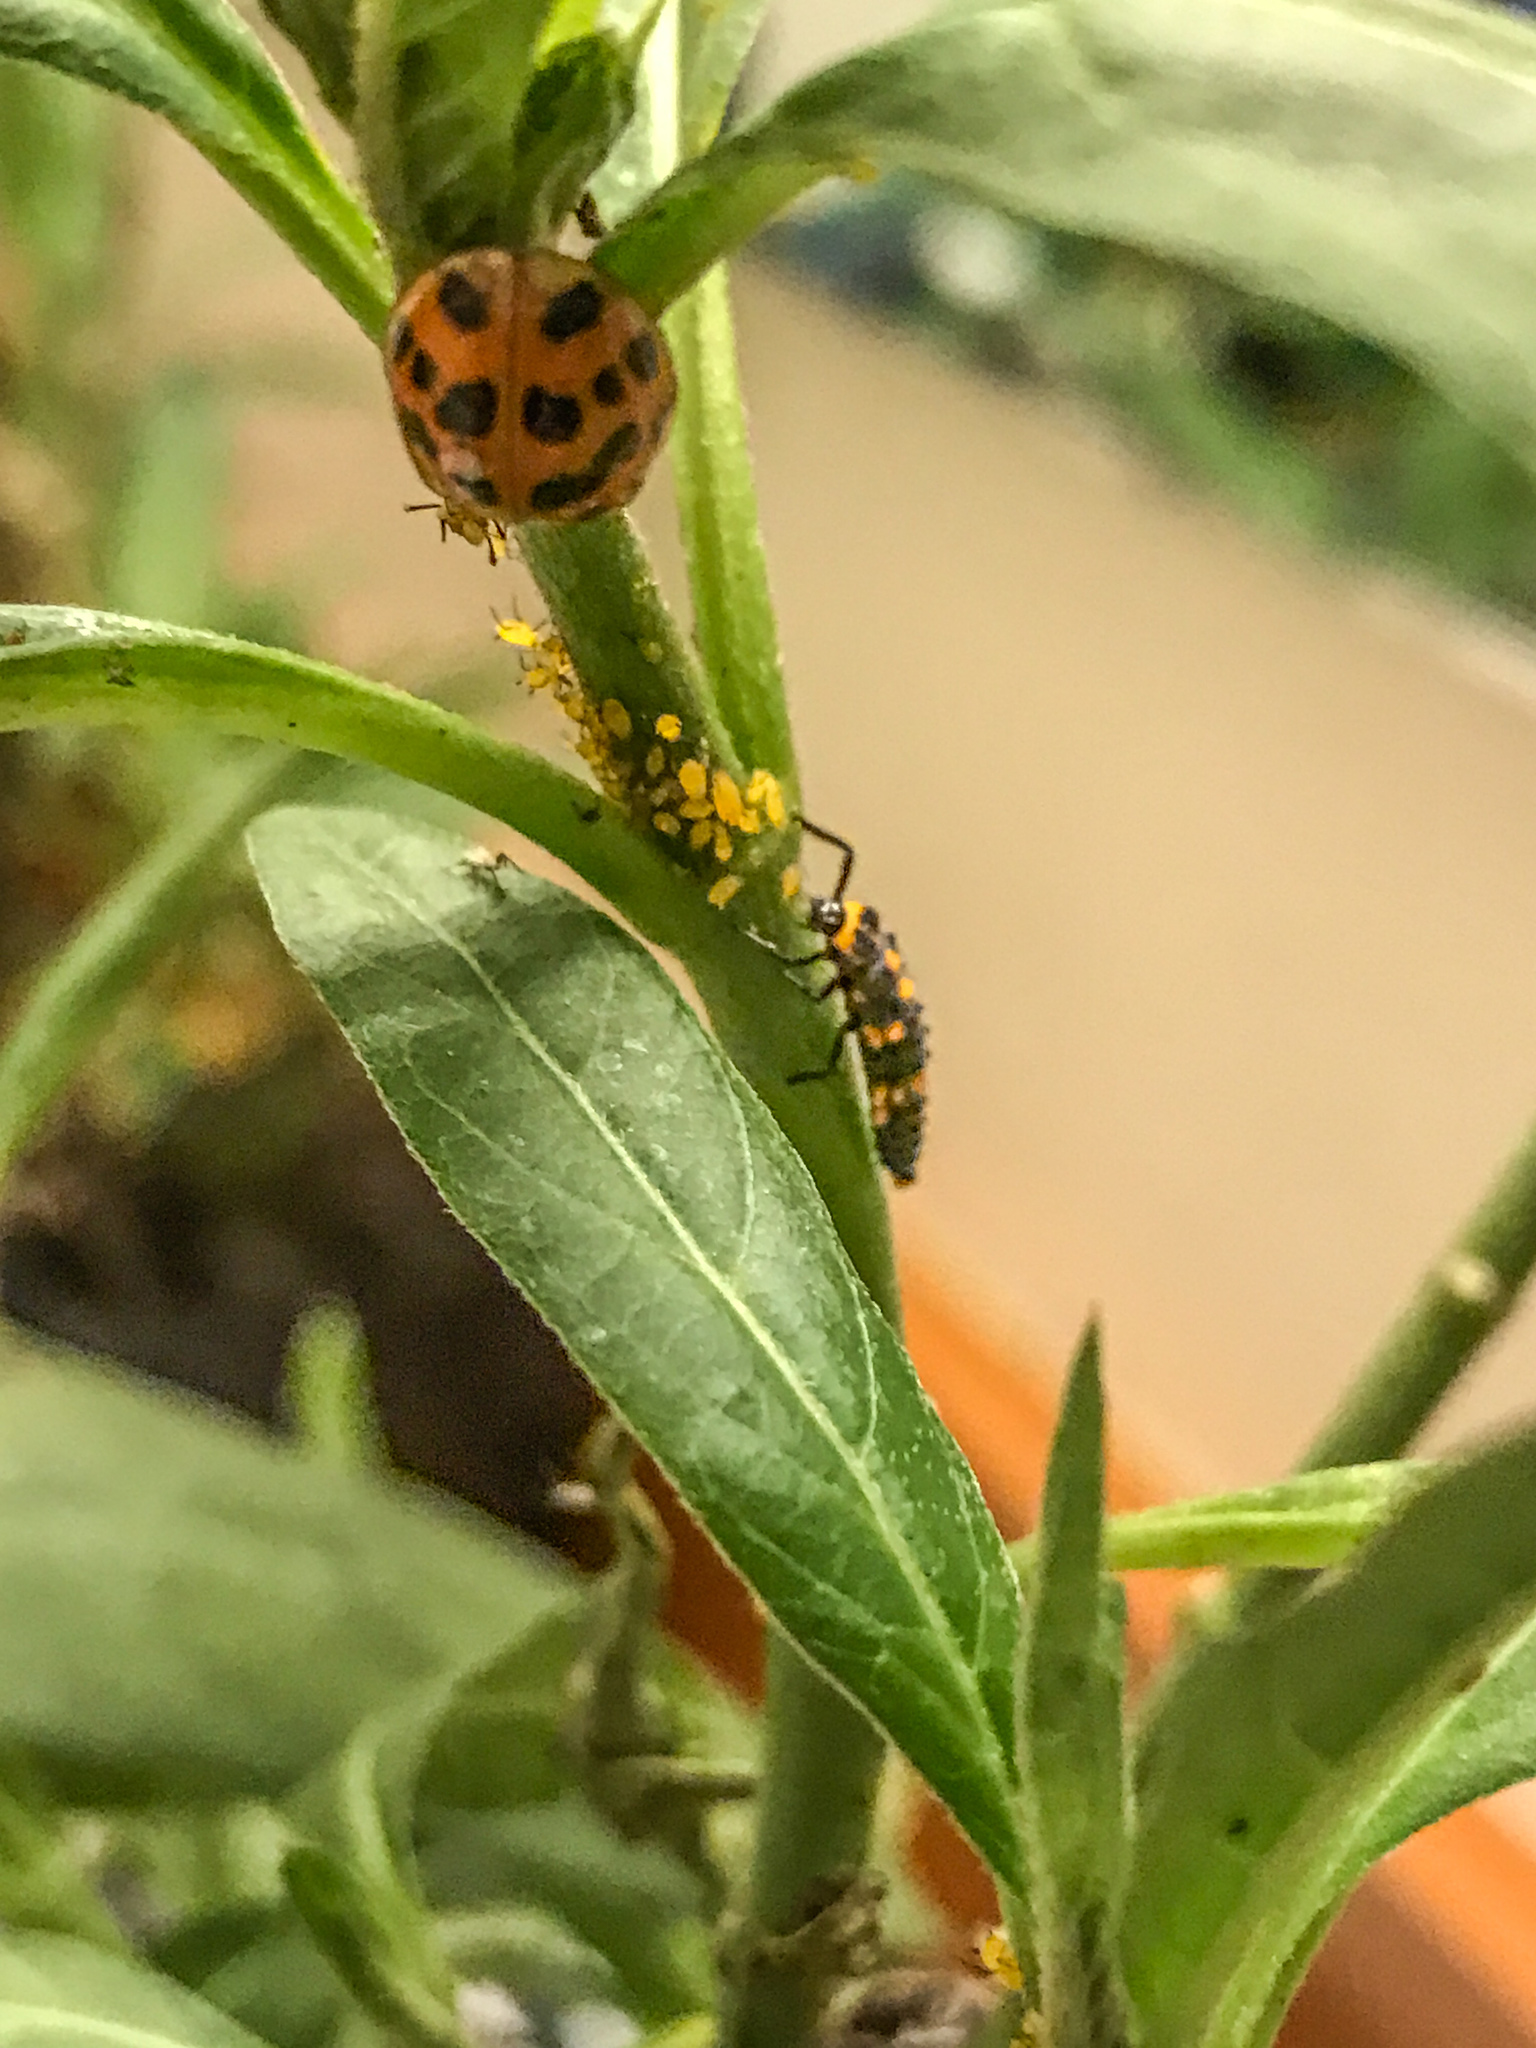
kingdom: Animalia
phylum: Arthropoda
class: Insecta
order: Coleoptera
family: Coccinellidae
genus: Harmonia
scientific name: Harmonia axyridis
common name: Harlequin ladybird
